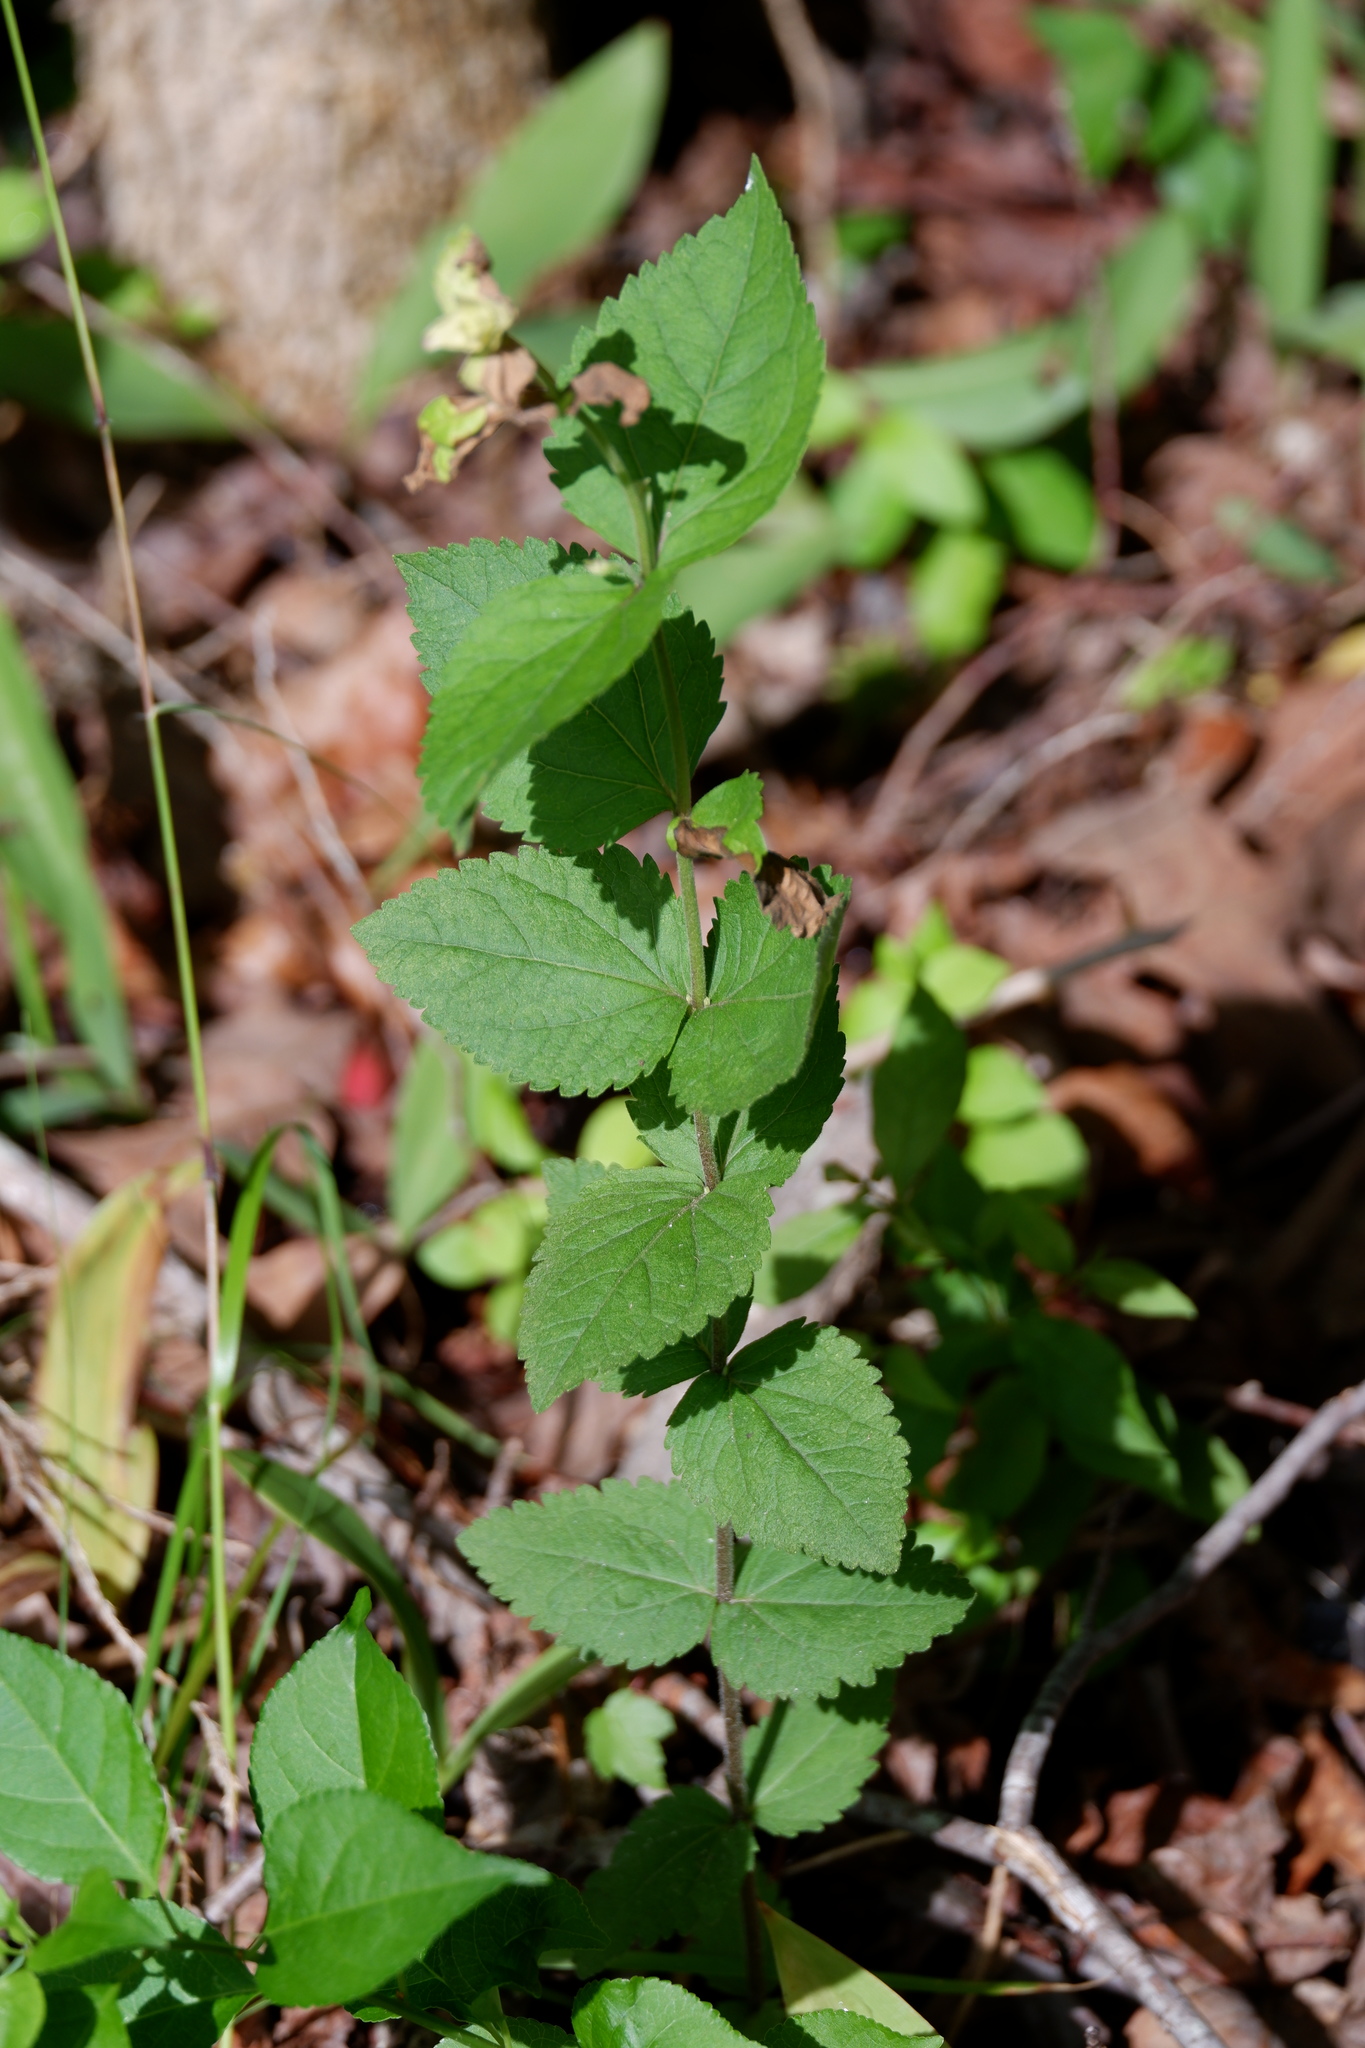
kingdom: Plantae
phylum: Tracheophyta
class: Magnoliopsida
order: Asterales
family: Asteraceae
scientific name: Asteraceae
